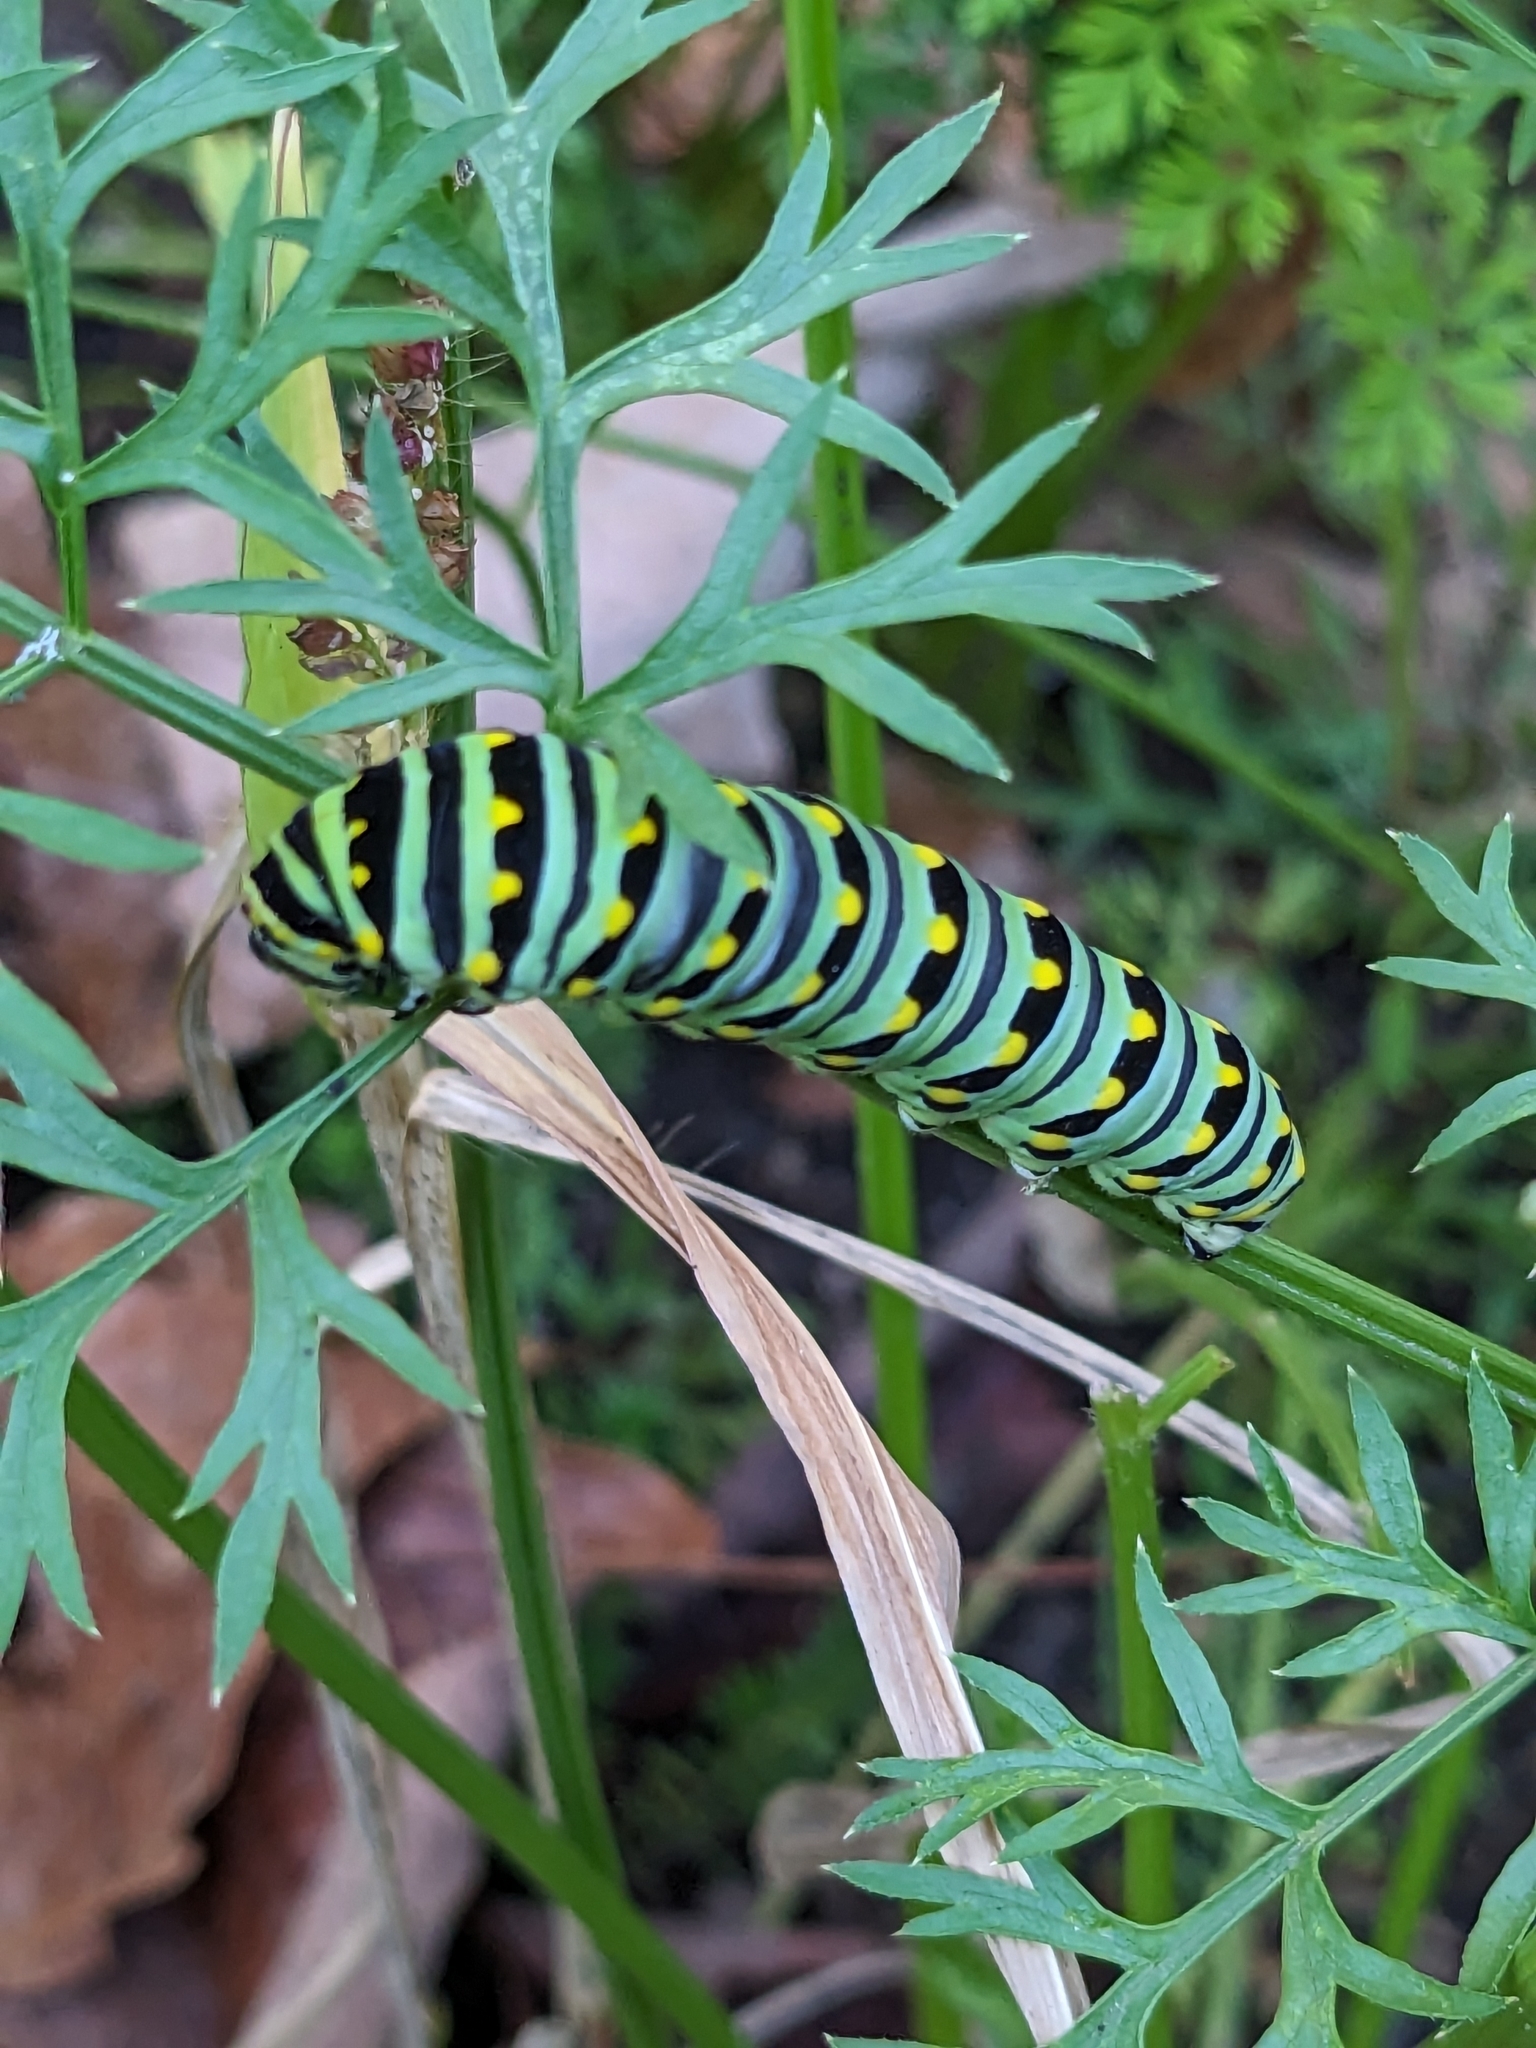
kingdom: Animalia
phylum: Arthropoda
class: Insecta
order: Lepidoptera
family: Papilionidae
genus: Papilio
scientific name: Papilio polyxenes
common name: Black swallowtail
